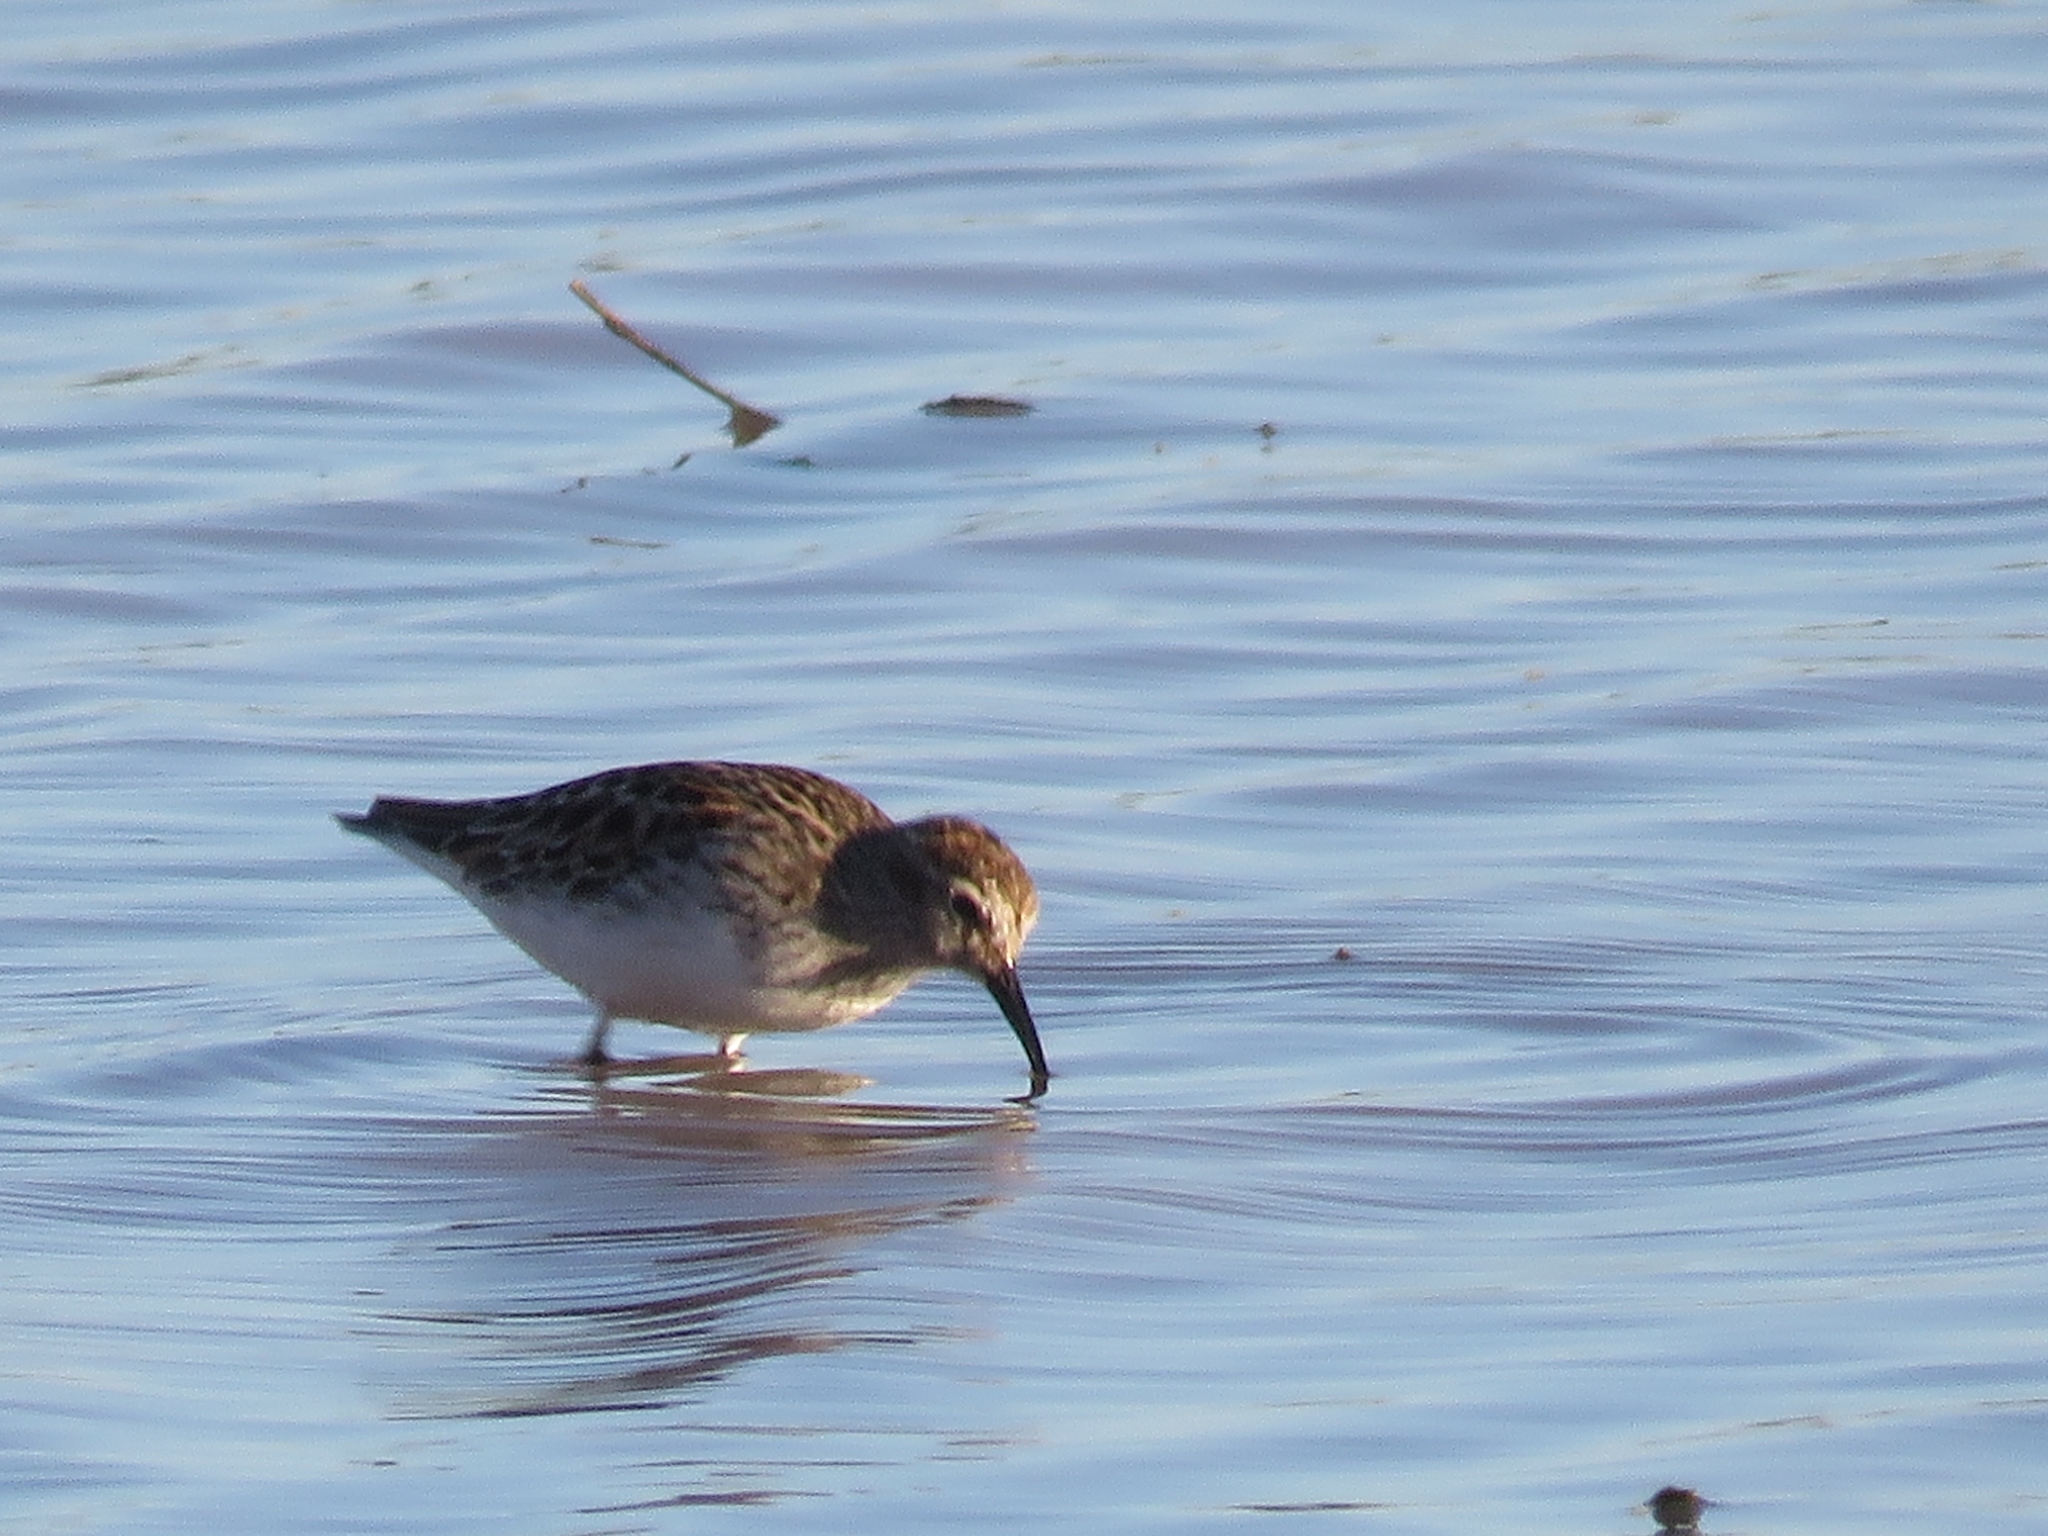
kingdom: Animalia
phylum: Chordata
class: Aves
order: Charadriiformes
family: Scolopacidae
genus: Calidris
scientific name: Calidris minutilla
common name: Least sandpiper
